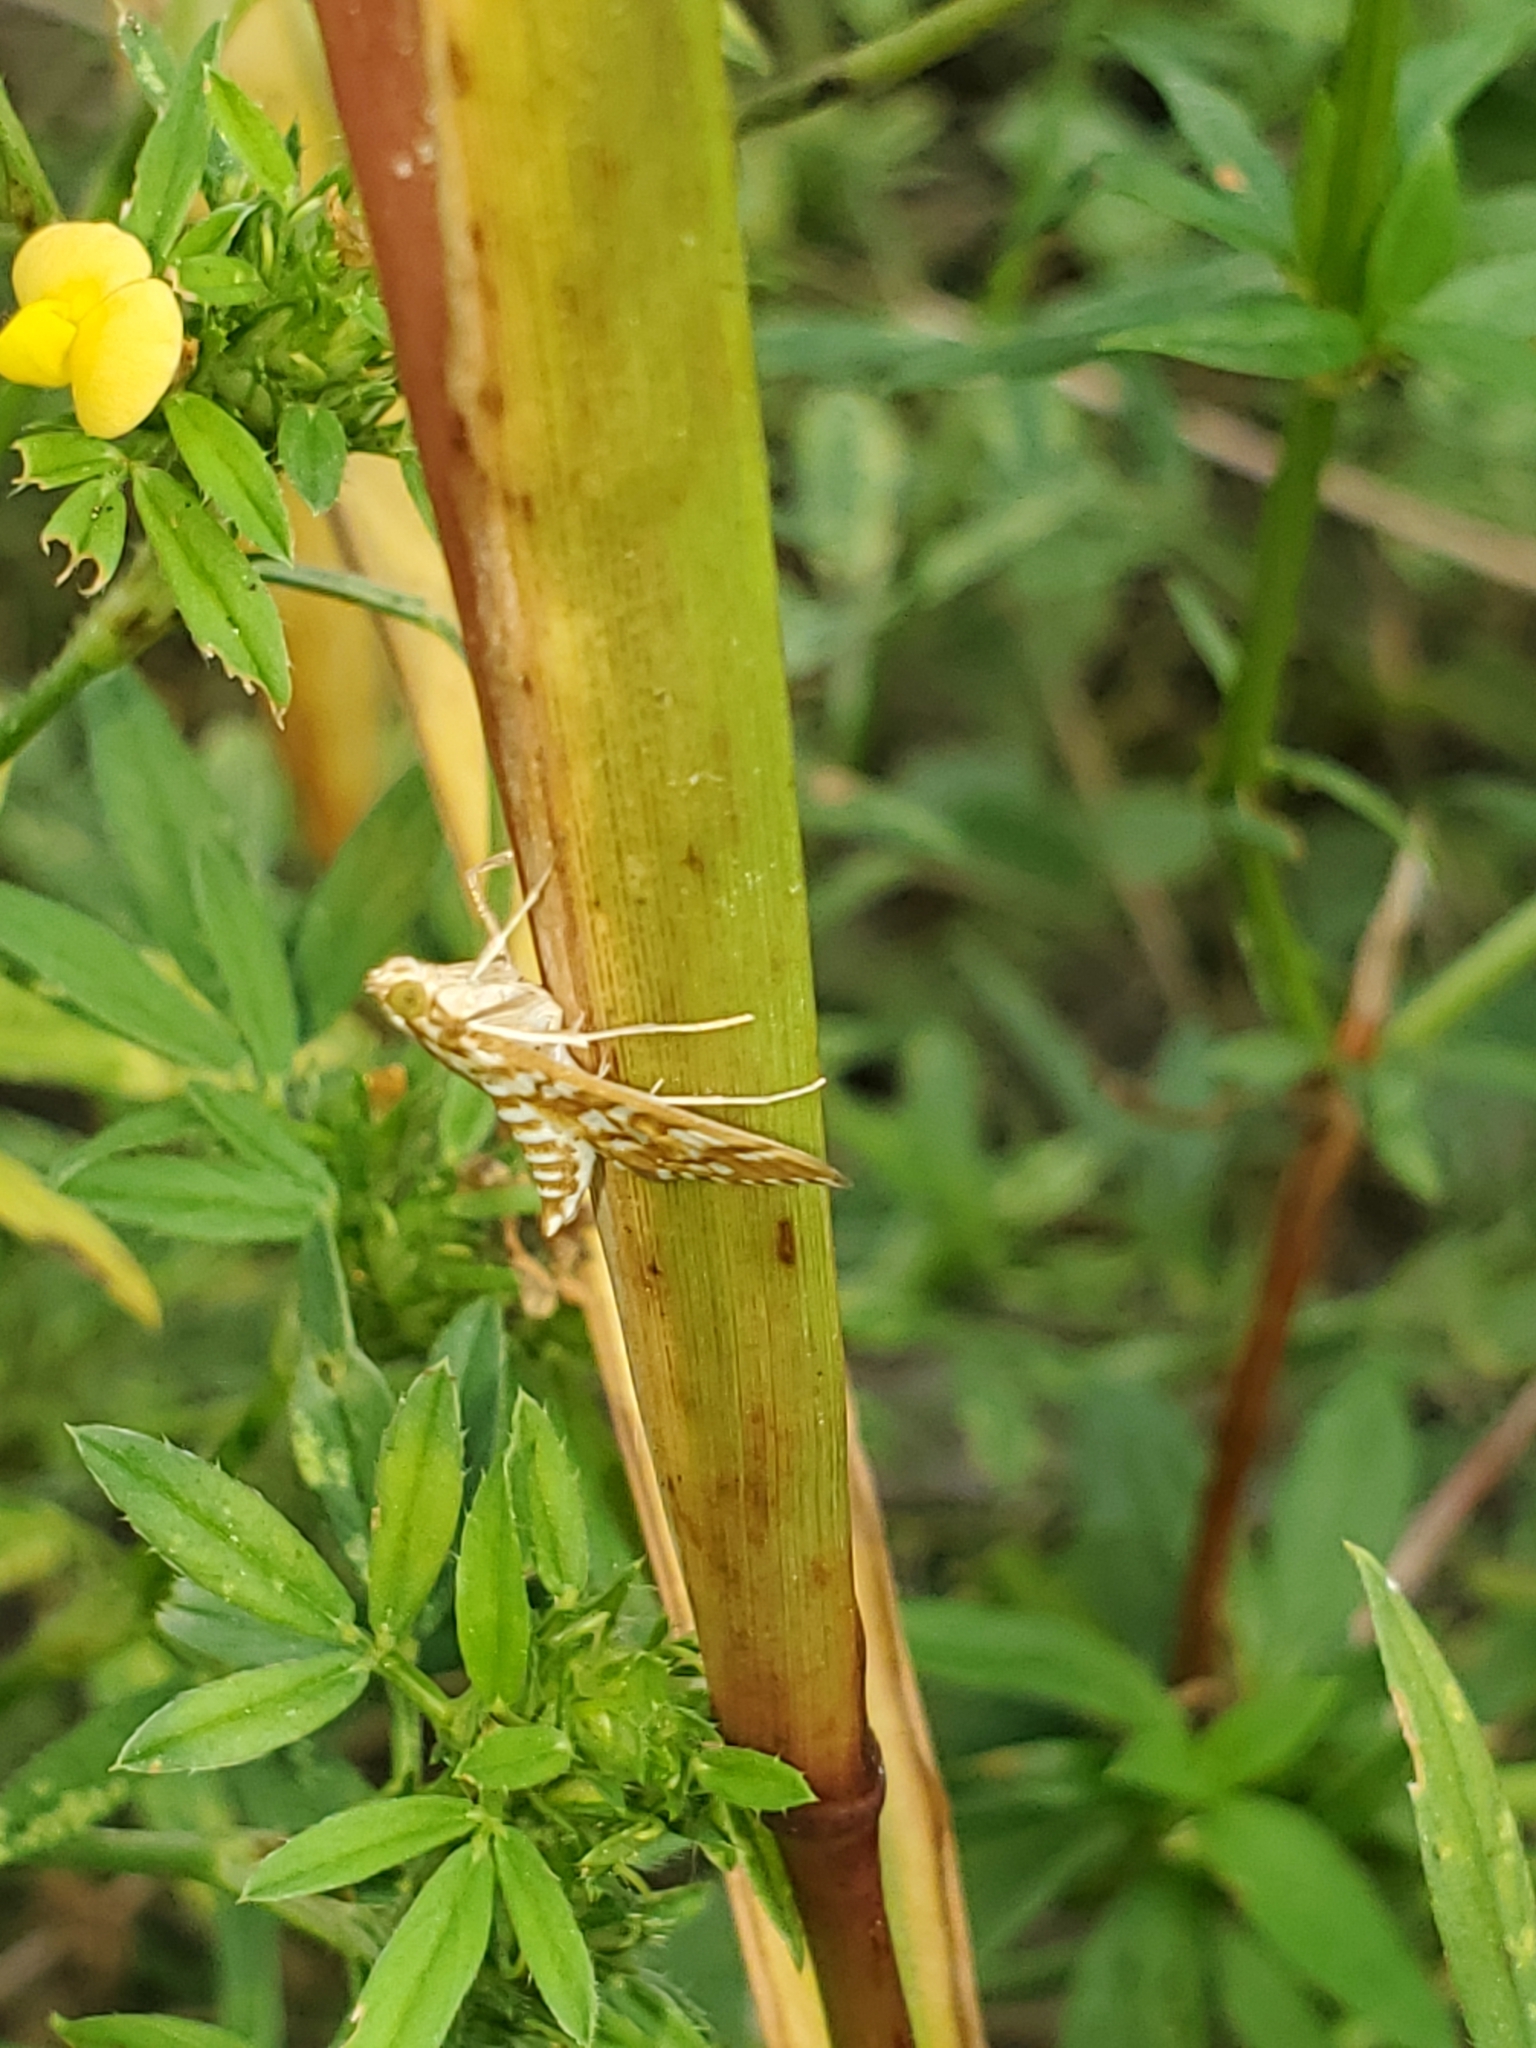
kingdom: Animalia
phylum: Arthropoda
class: Insecta
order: Lepidoptera
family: Crambidae
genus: Epipagis
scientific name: Epipagis fenestralis
